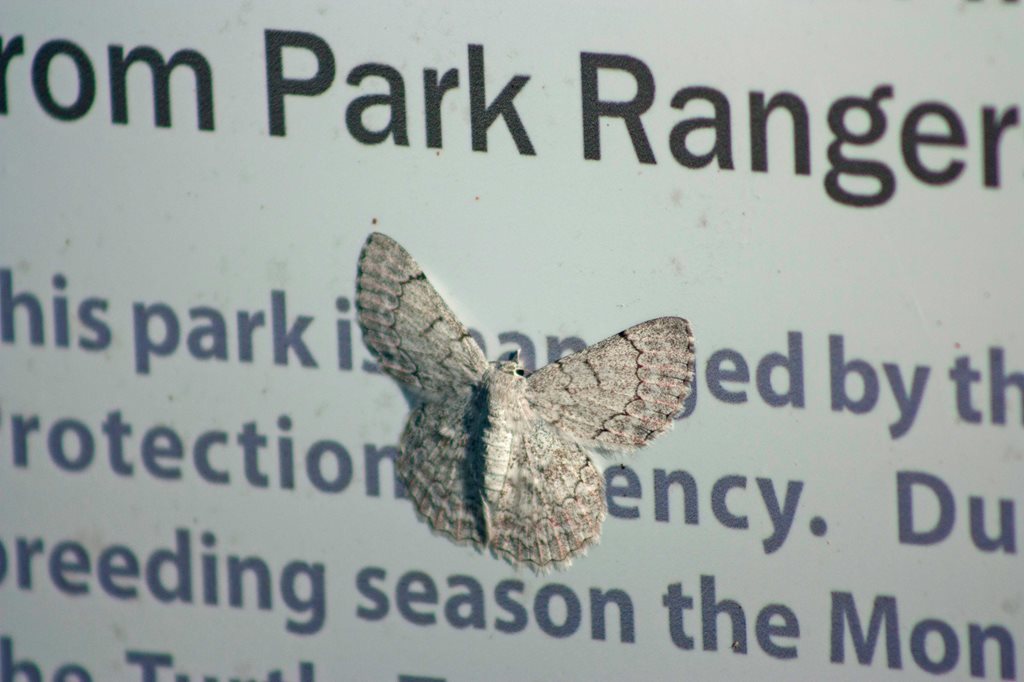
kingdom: Animalia
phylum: Arthropoda
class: Insecta
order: Lepidoptera
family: Geometridae
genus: Pingasa
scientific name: Pingasa chlora
